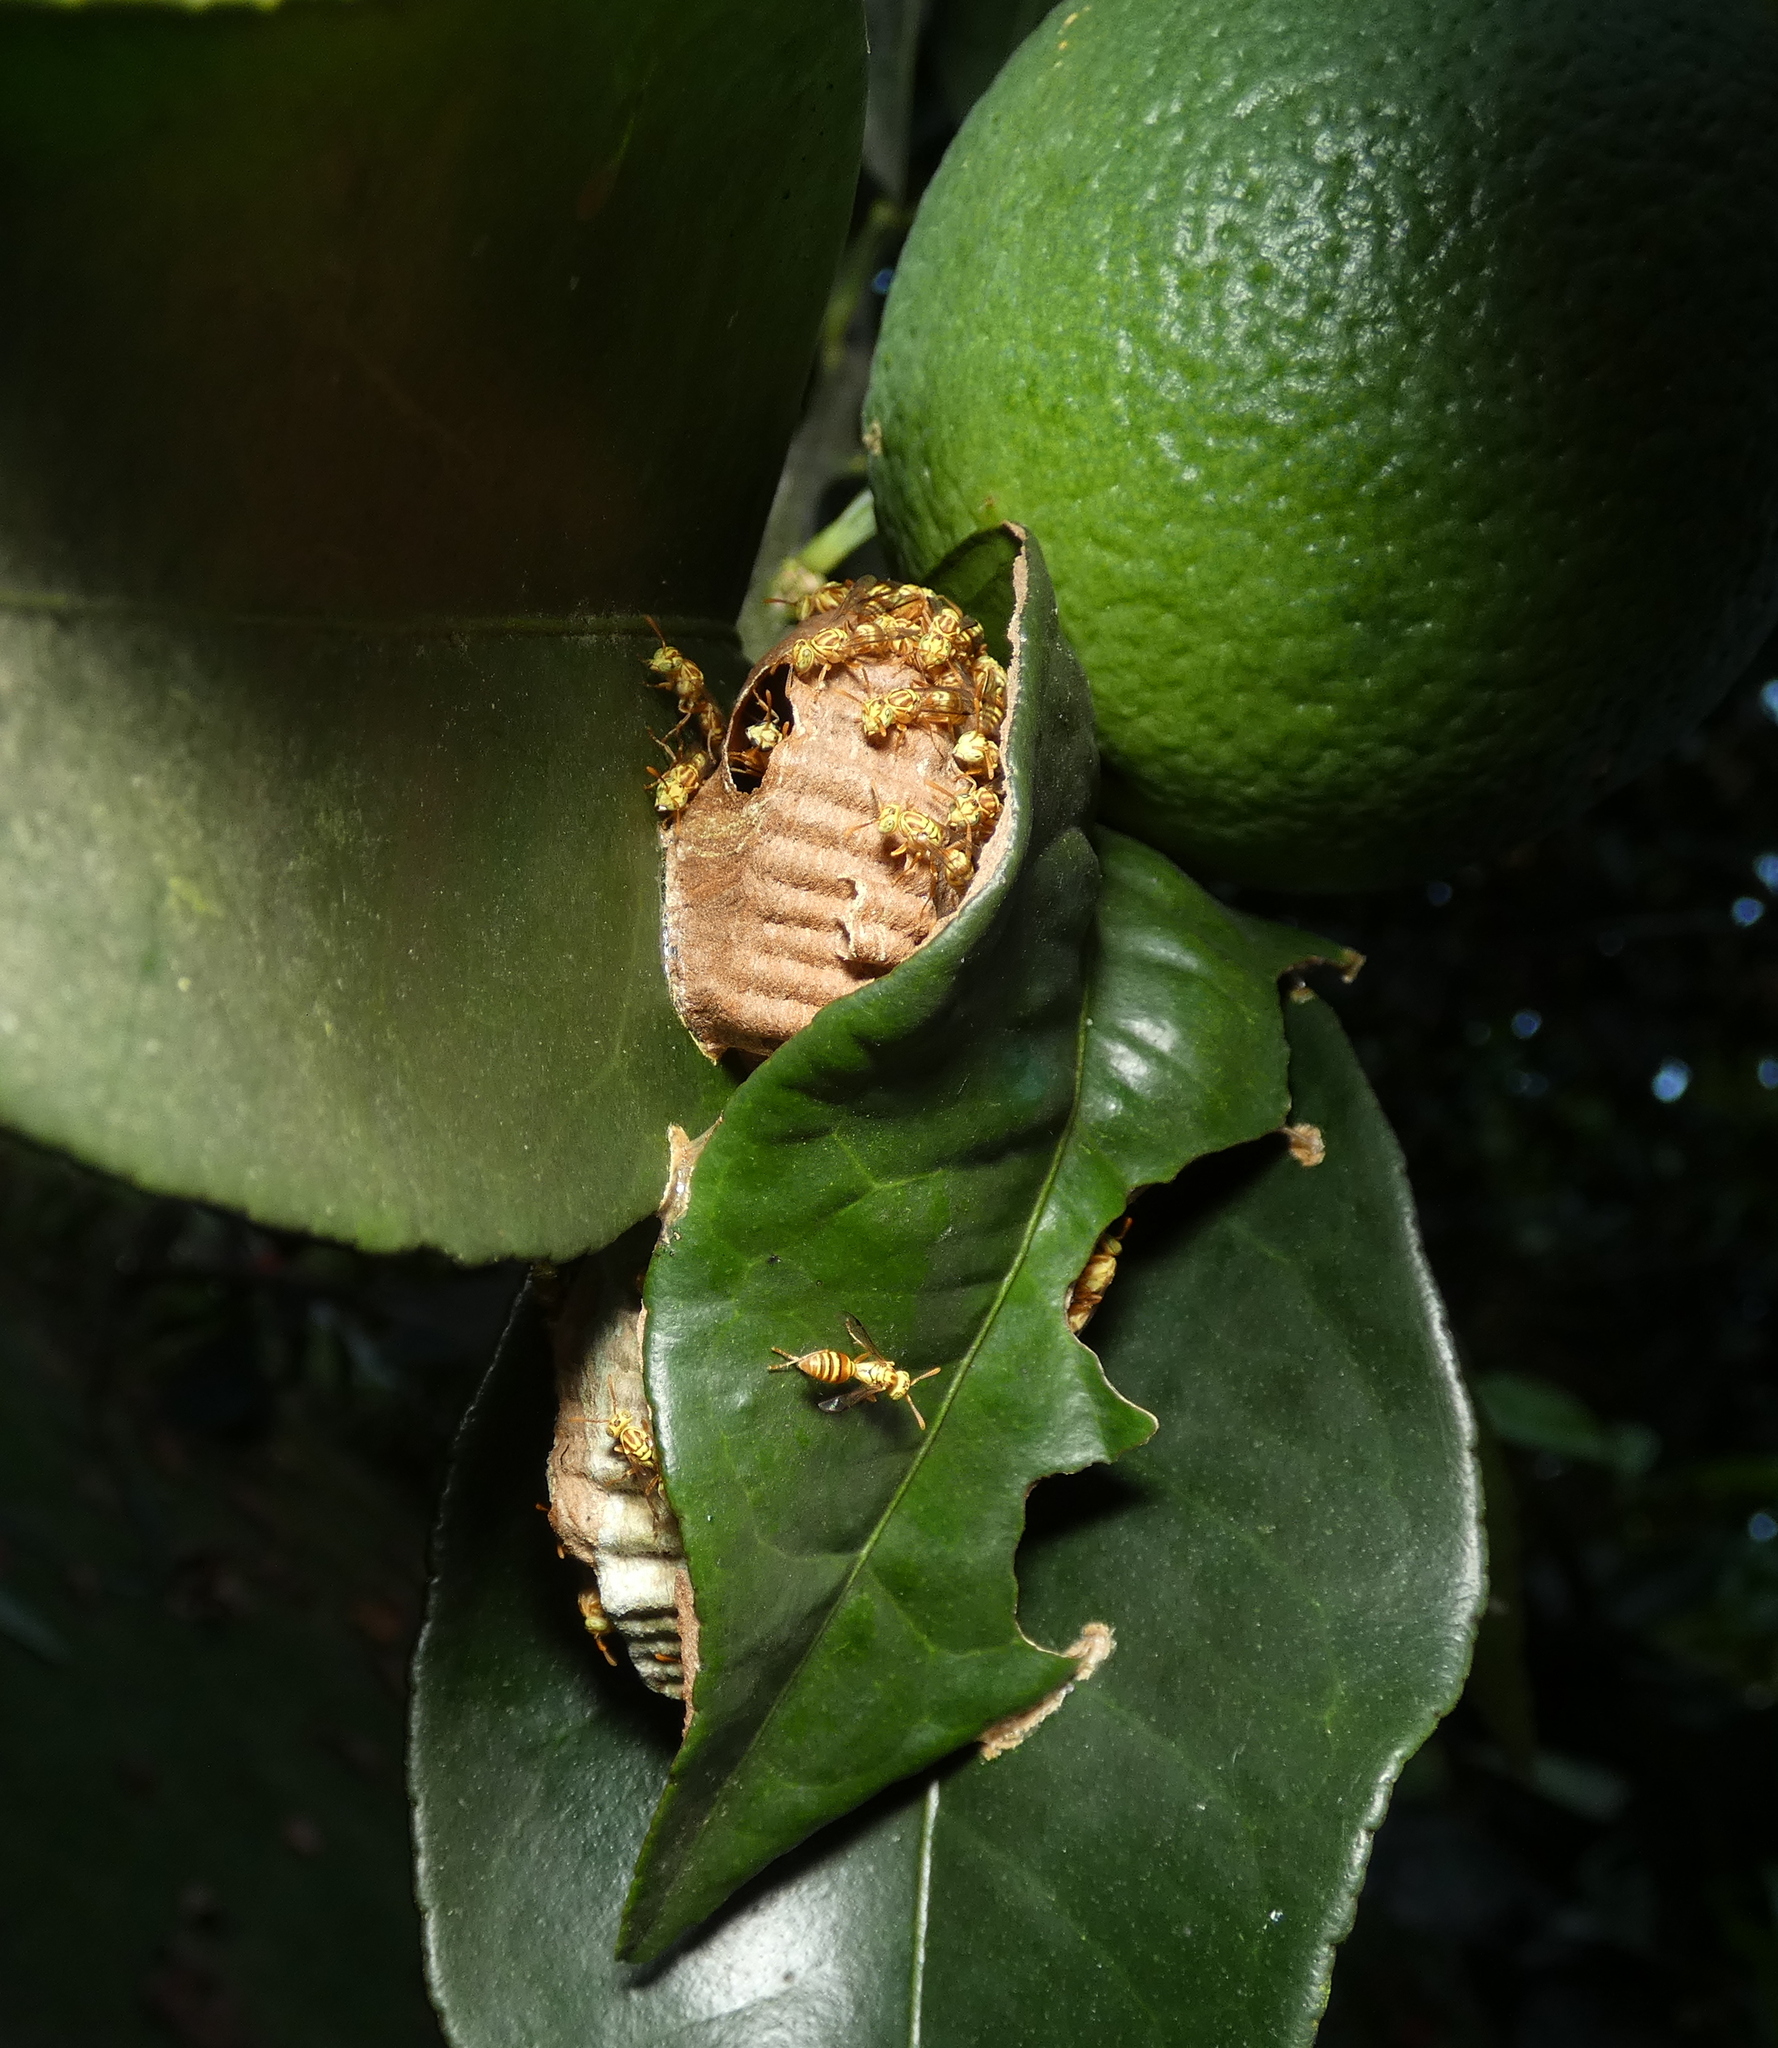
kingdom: Animalia
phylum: Arthropoda
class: Insecta
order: Hymenoptera
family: Vespidae
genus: Protopolybia
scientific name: Protopolybia potiguara
